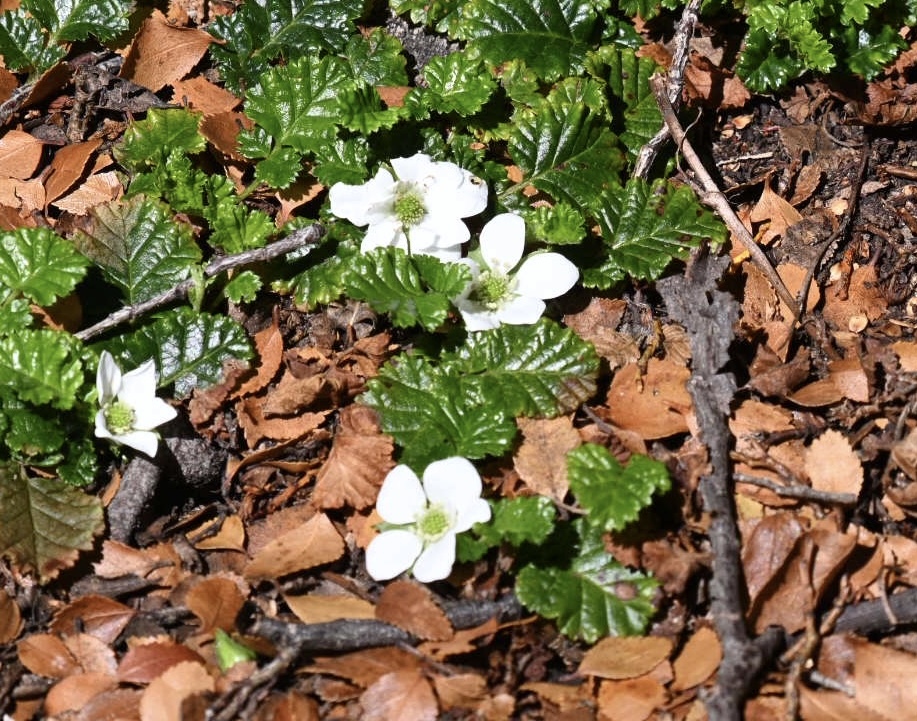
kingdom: Plantae
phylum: Tracheophyta
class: Magnoliopsida
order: Rosales
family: Rosaceae
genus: Rubus
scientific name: Rubus geoides
